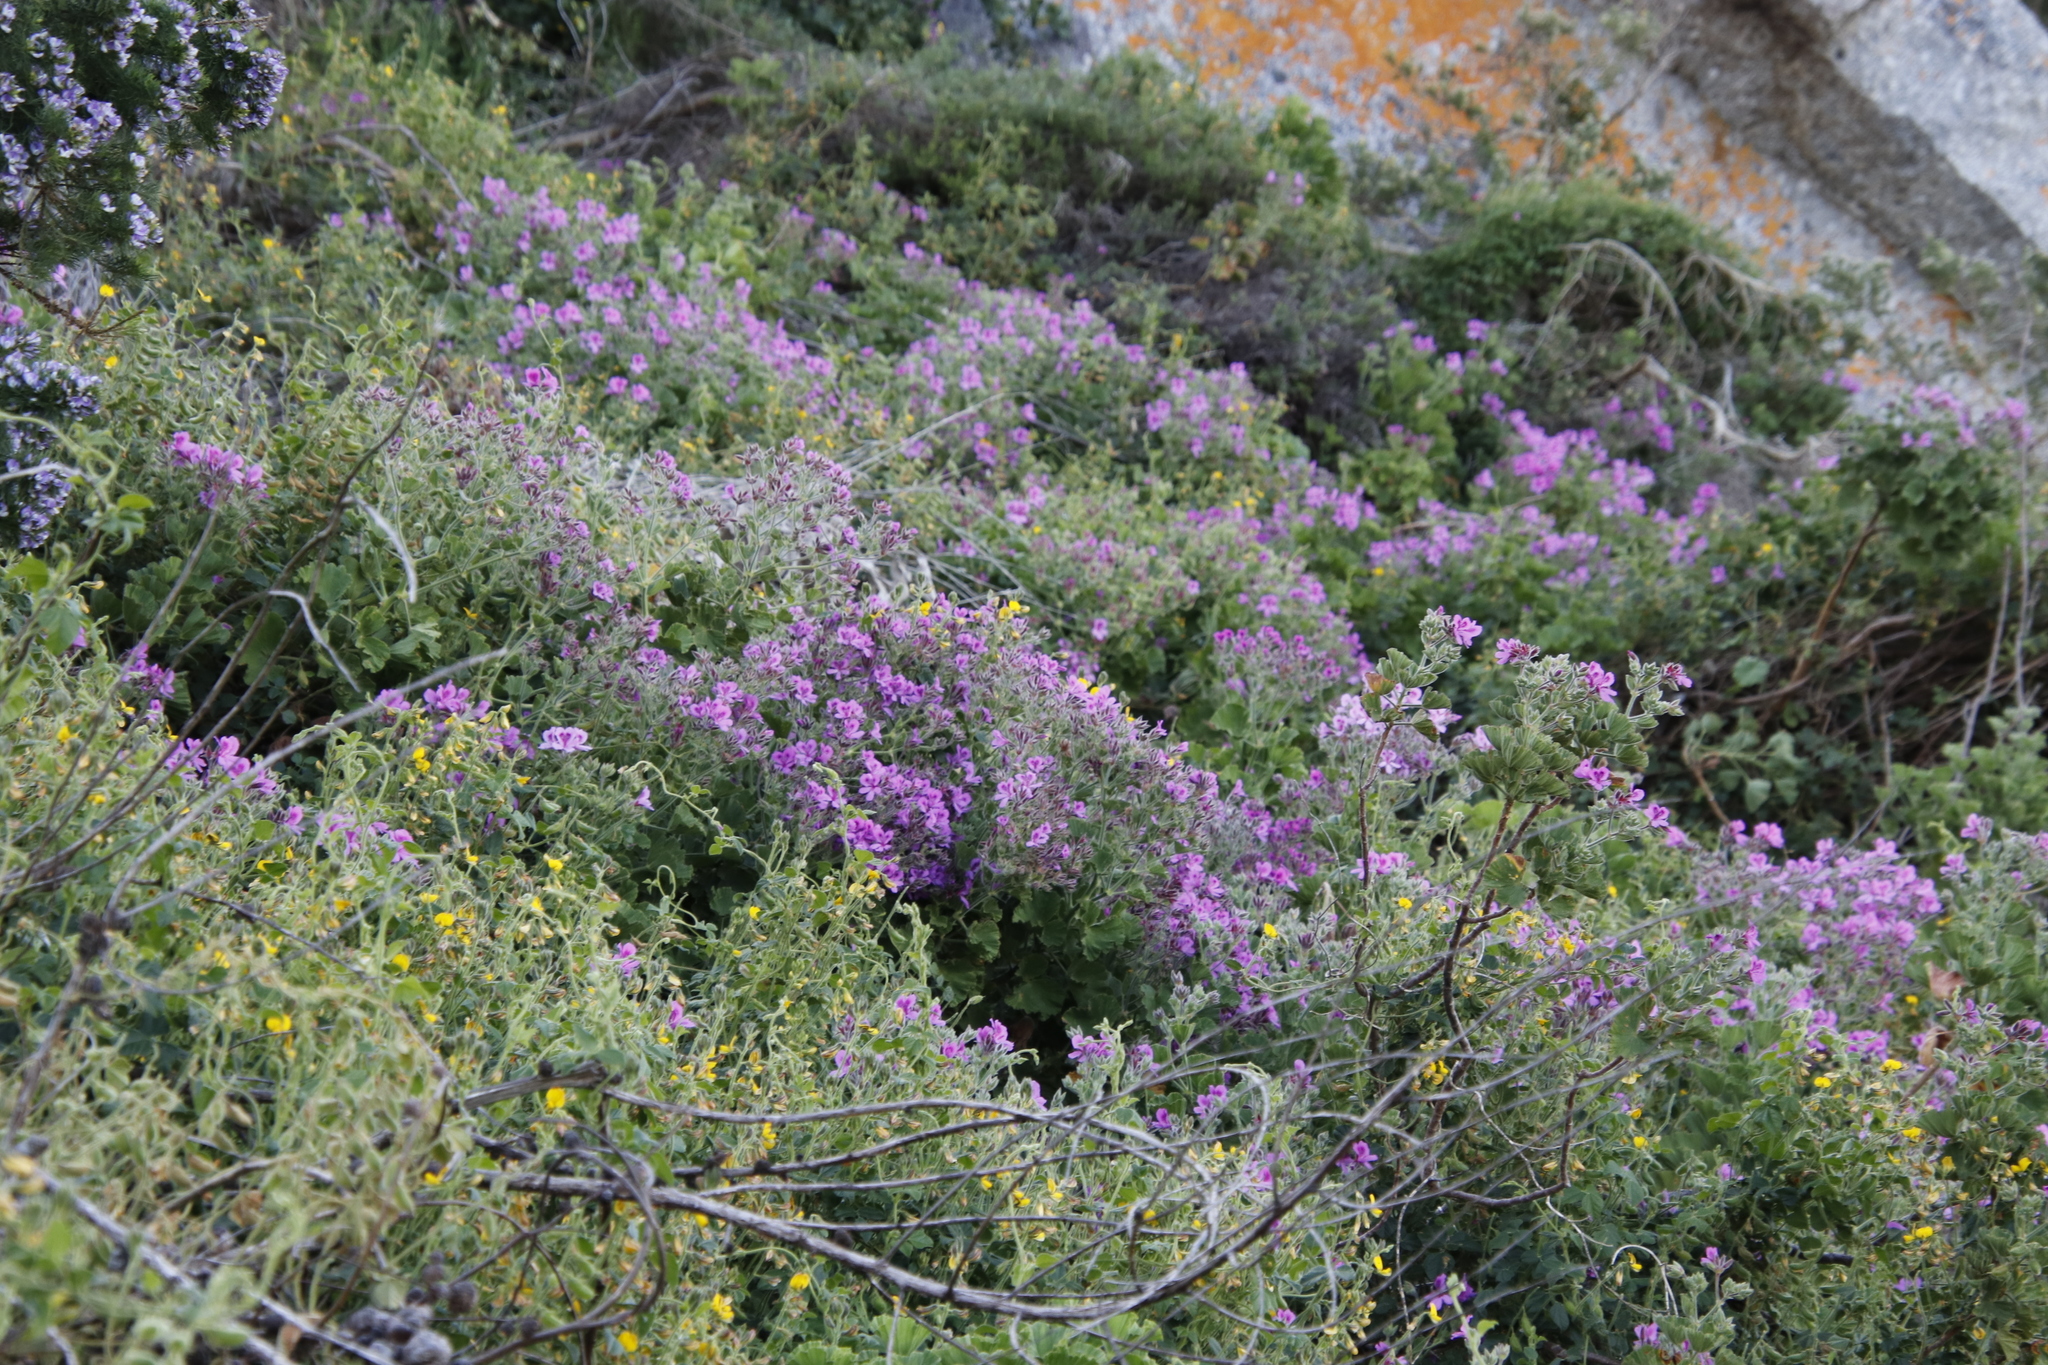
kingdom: Plantae
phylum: Tracheophyta
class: Magnoliopsida
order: Geraniales
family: Geraniaceae
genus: Pelargonium
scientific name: Pelargonium cucullatum
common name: Tree pelargonium
